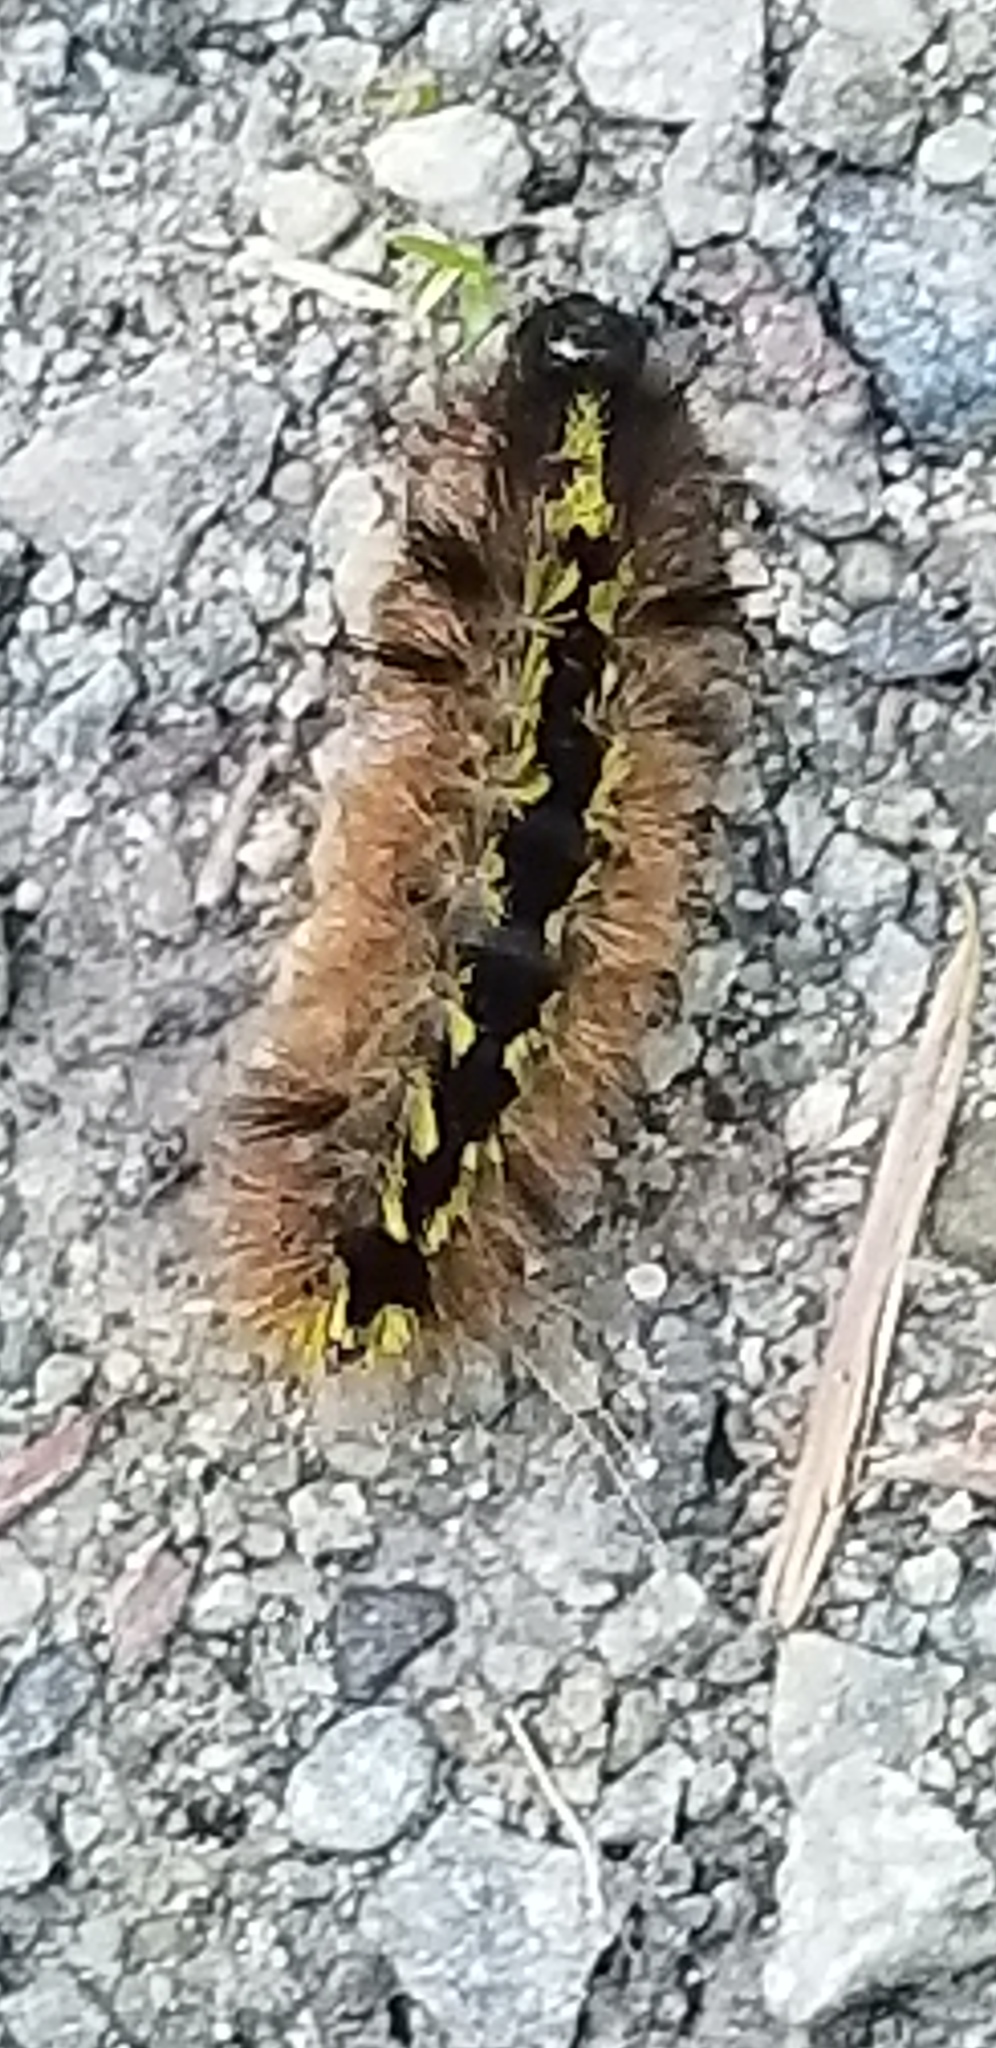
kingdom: Animalia
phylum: Arthropoda
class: Insecta
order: Lepidoptera
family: Erebidae
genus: Lophocampa
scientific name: Lophocampa argentata
